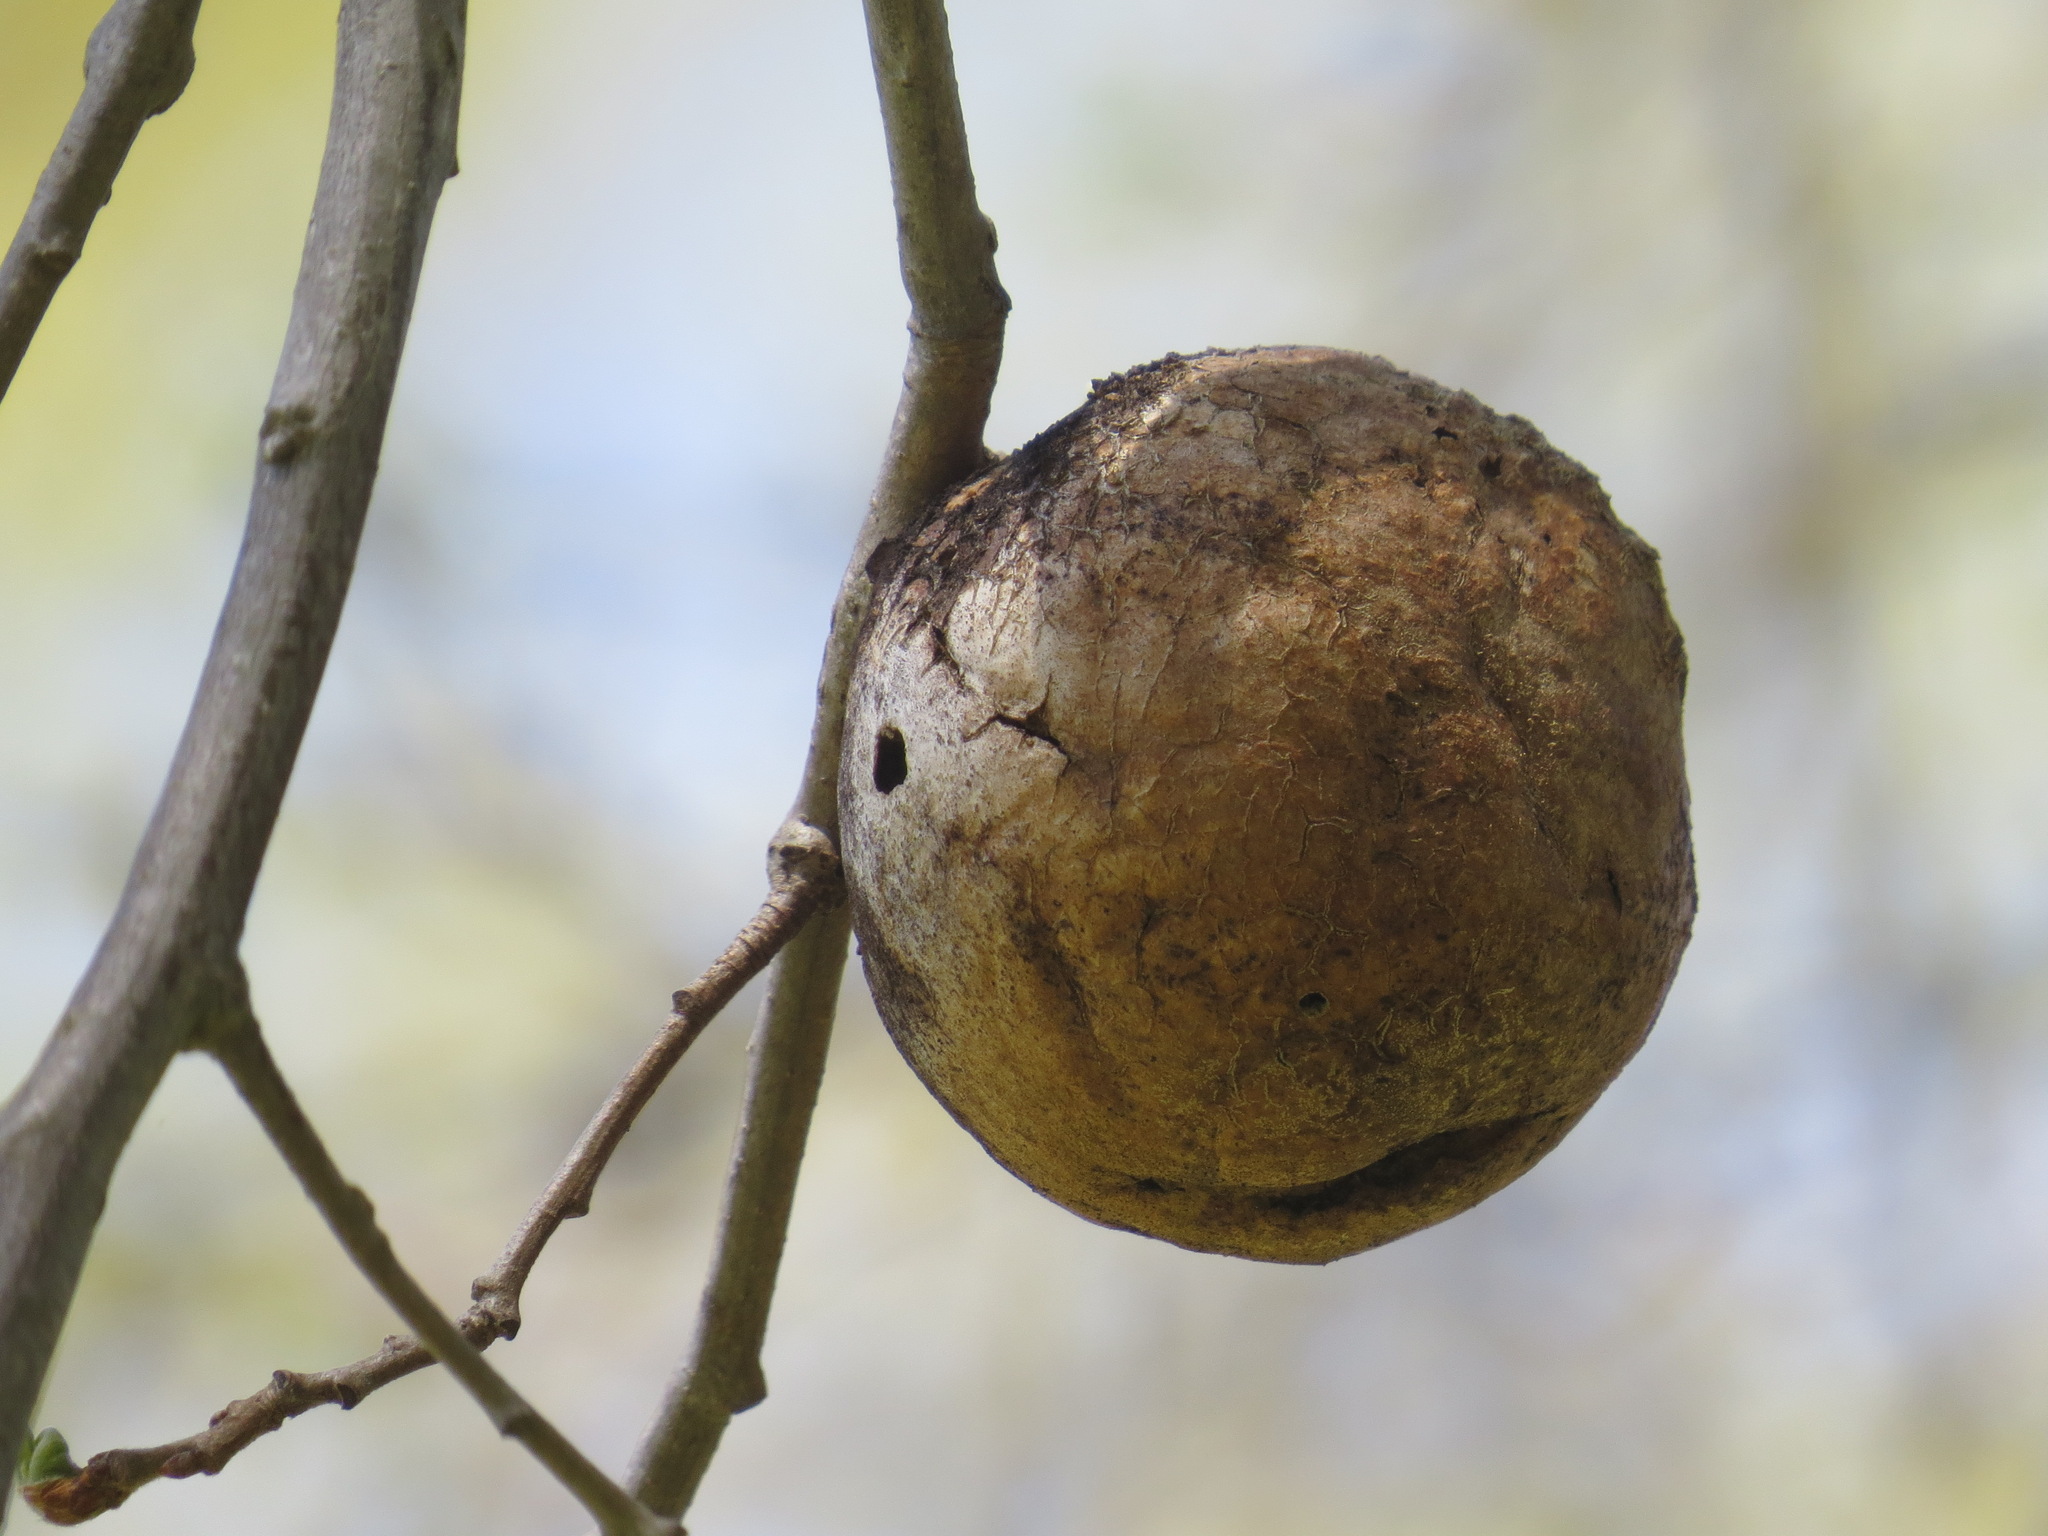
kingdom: Animalia
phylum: Arthropoda
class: Insecta
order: Hymenoptera
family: Cynipidae
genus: Andricus
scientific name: Andricus quercuscalifornicus
